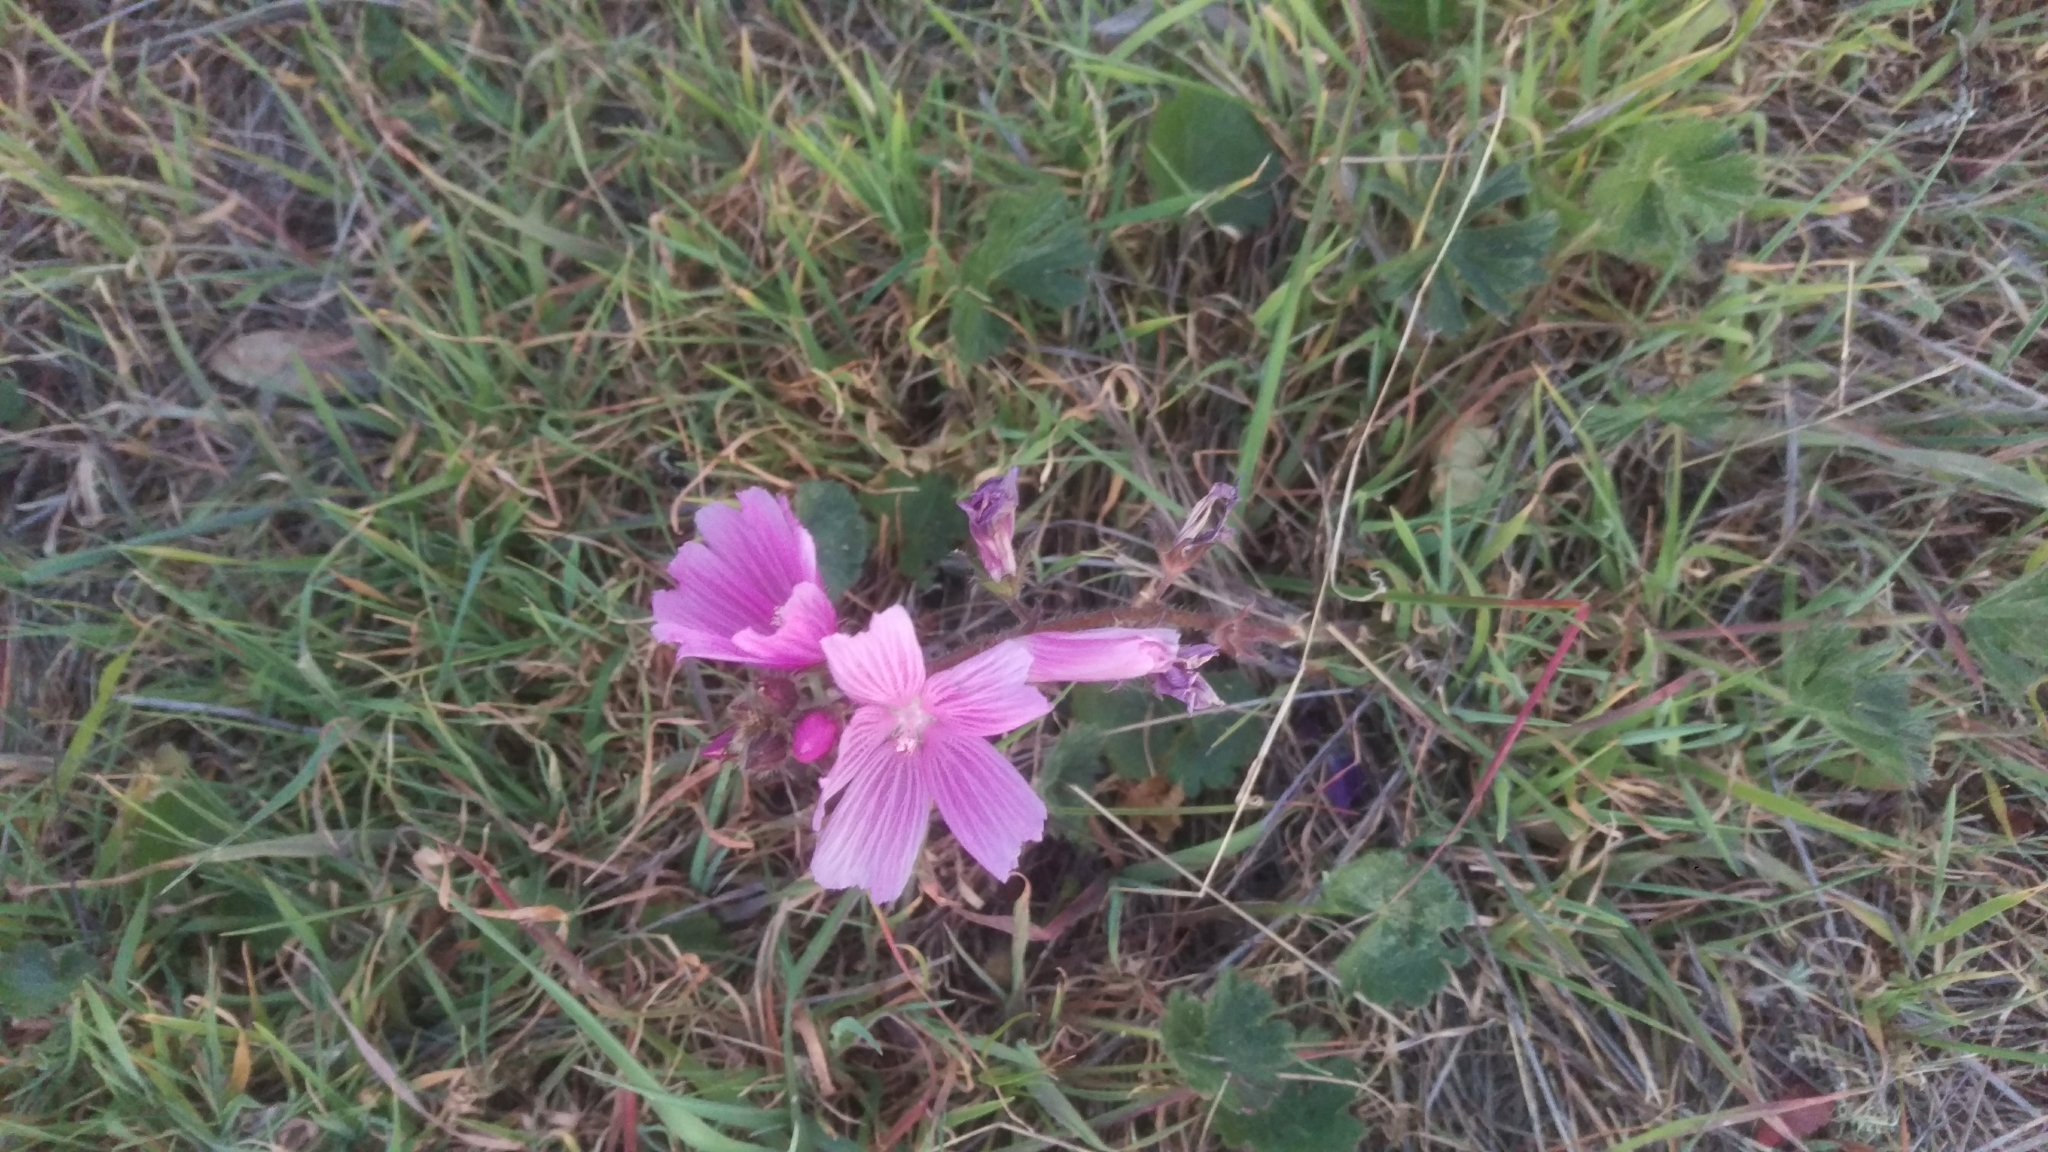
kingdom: Plantae
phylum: Tracheophyta
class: Magnoliopsida
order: Malvales
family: Malvaceae
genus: Sidalcea
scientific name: Sidalcea malviflora
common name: Greek mallow
